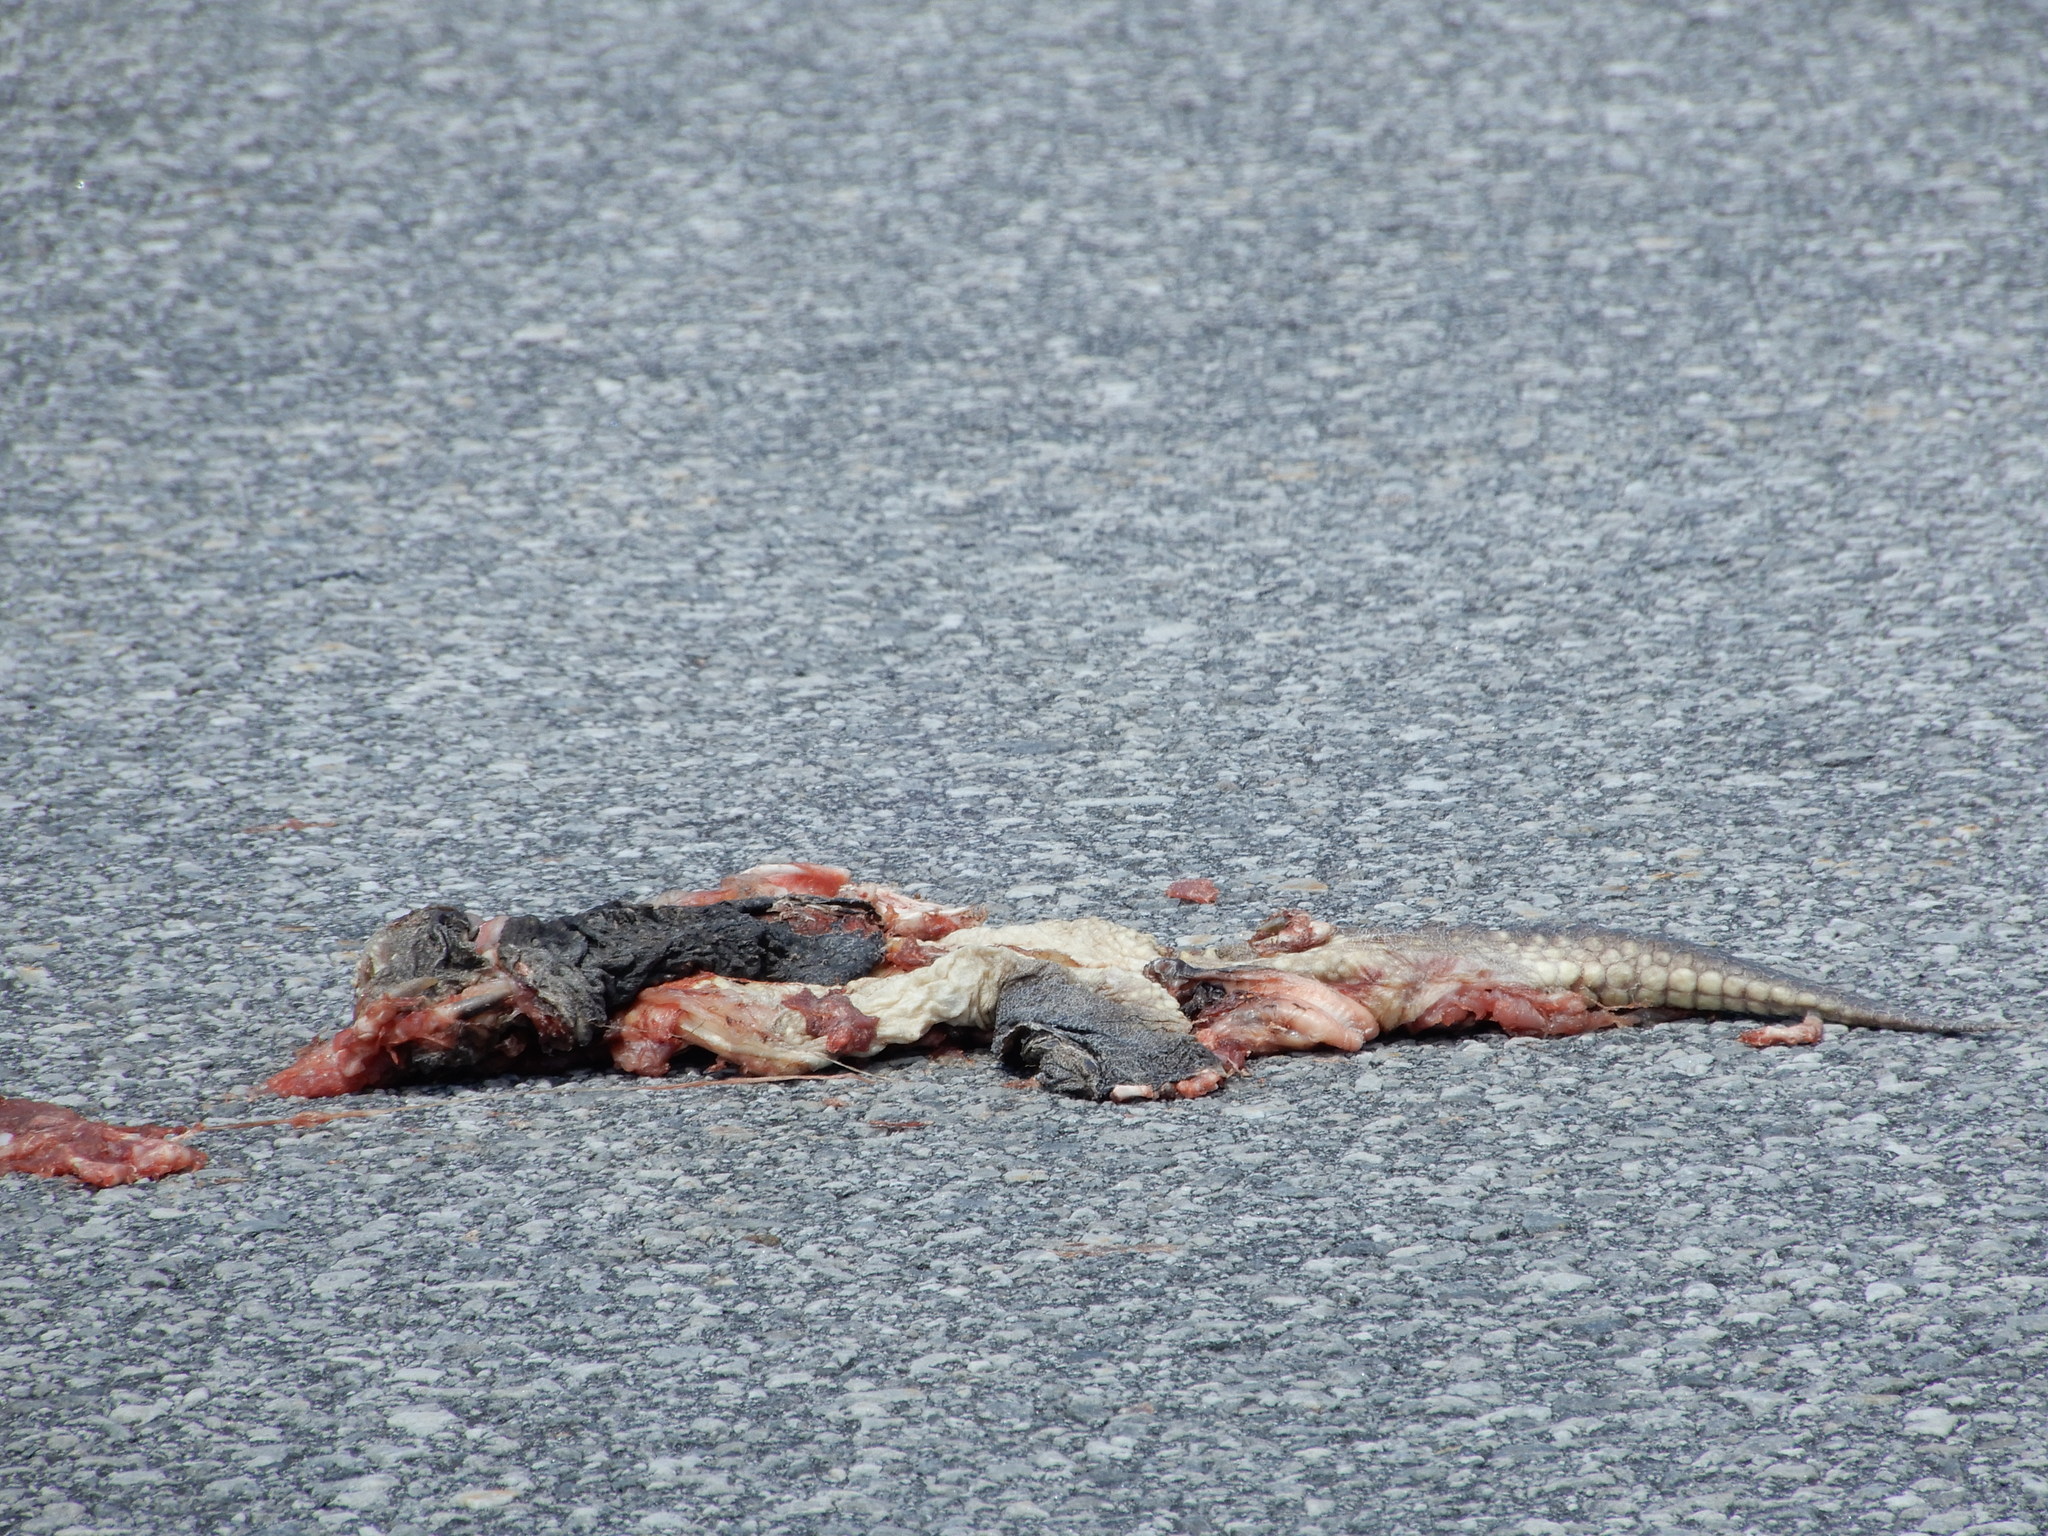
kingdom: Animalia
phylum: Chordata
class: Testudines
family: Chelydridae
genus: Chelydra
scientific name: Chelydra serpentina
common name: Common snapping turtle
